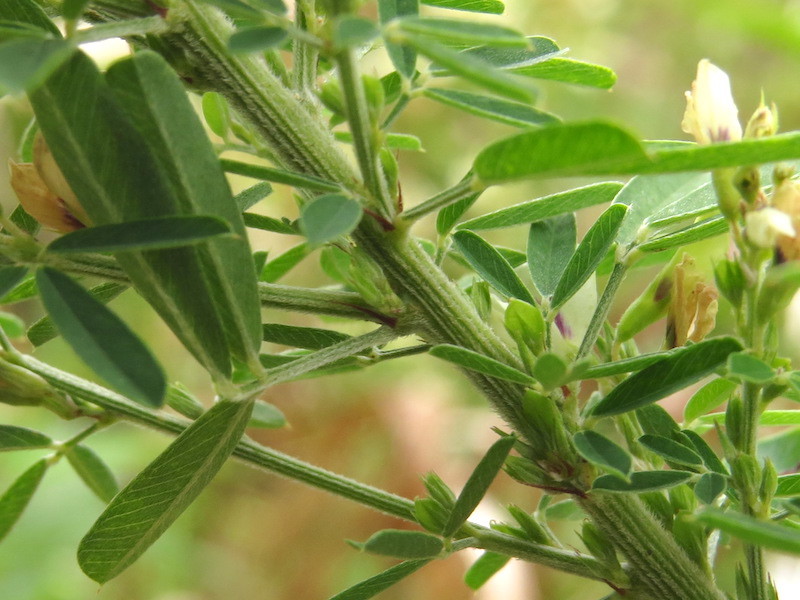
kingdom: Plantae
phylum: Tracheophyta
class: Magnoliopsida
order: Fabales
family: Fabaceae
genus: Lespedeza
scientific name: Lespedeza cuneata
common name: Chinese bush-clover
